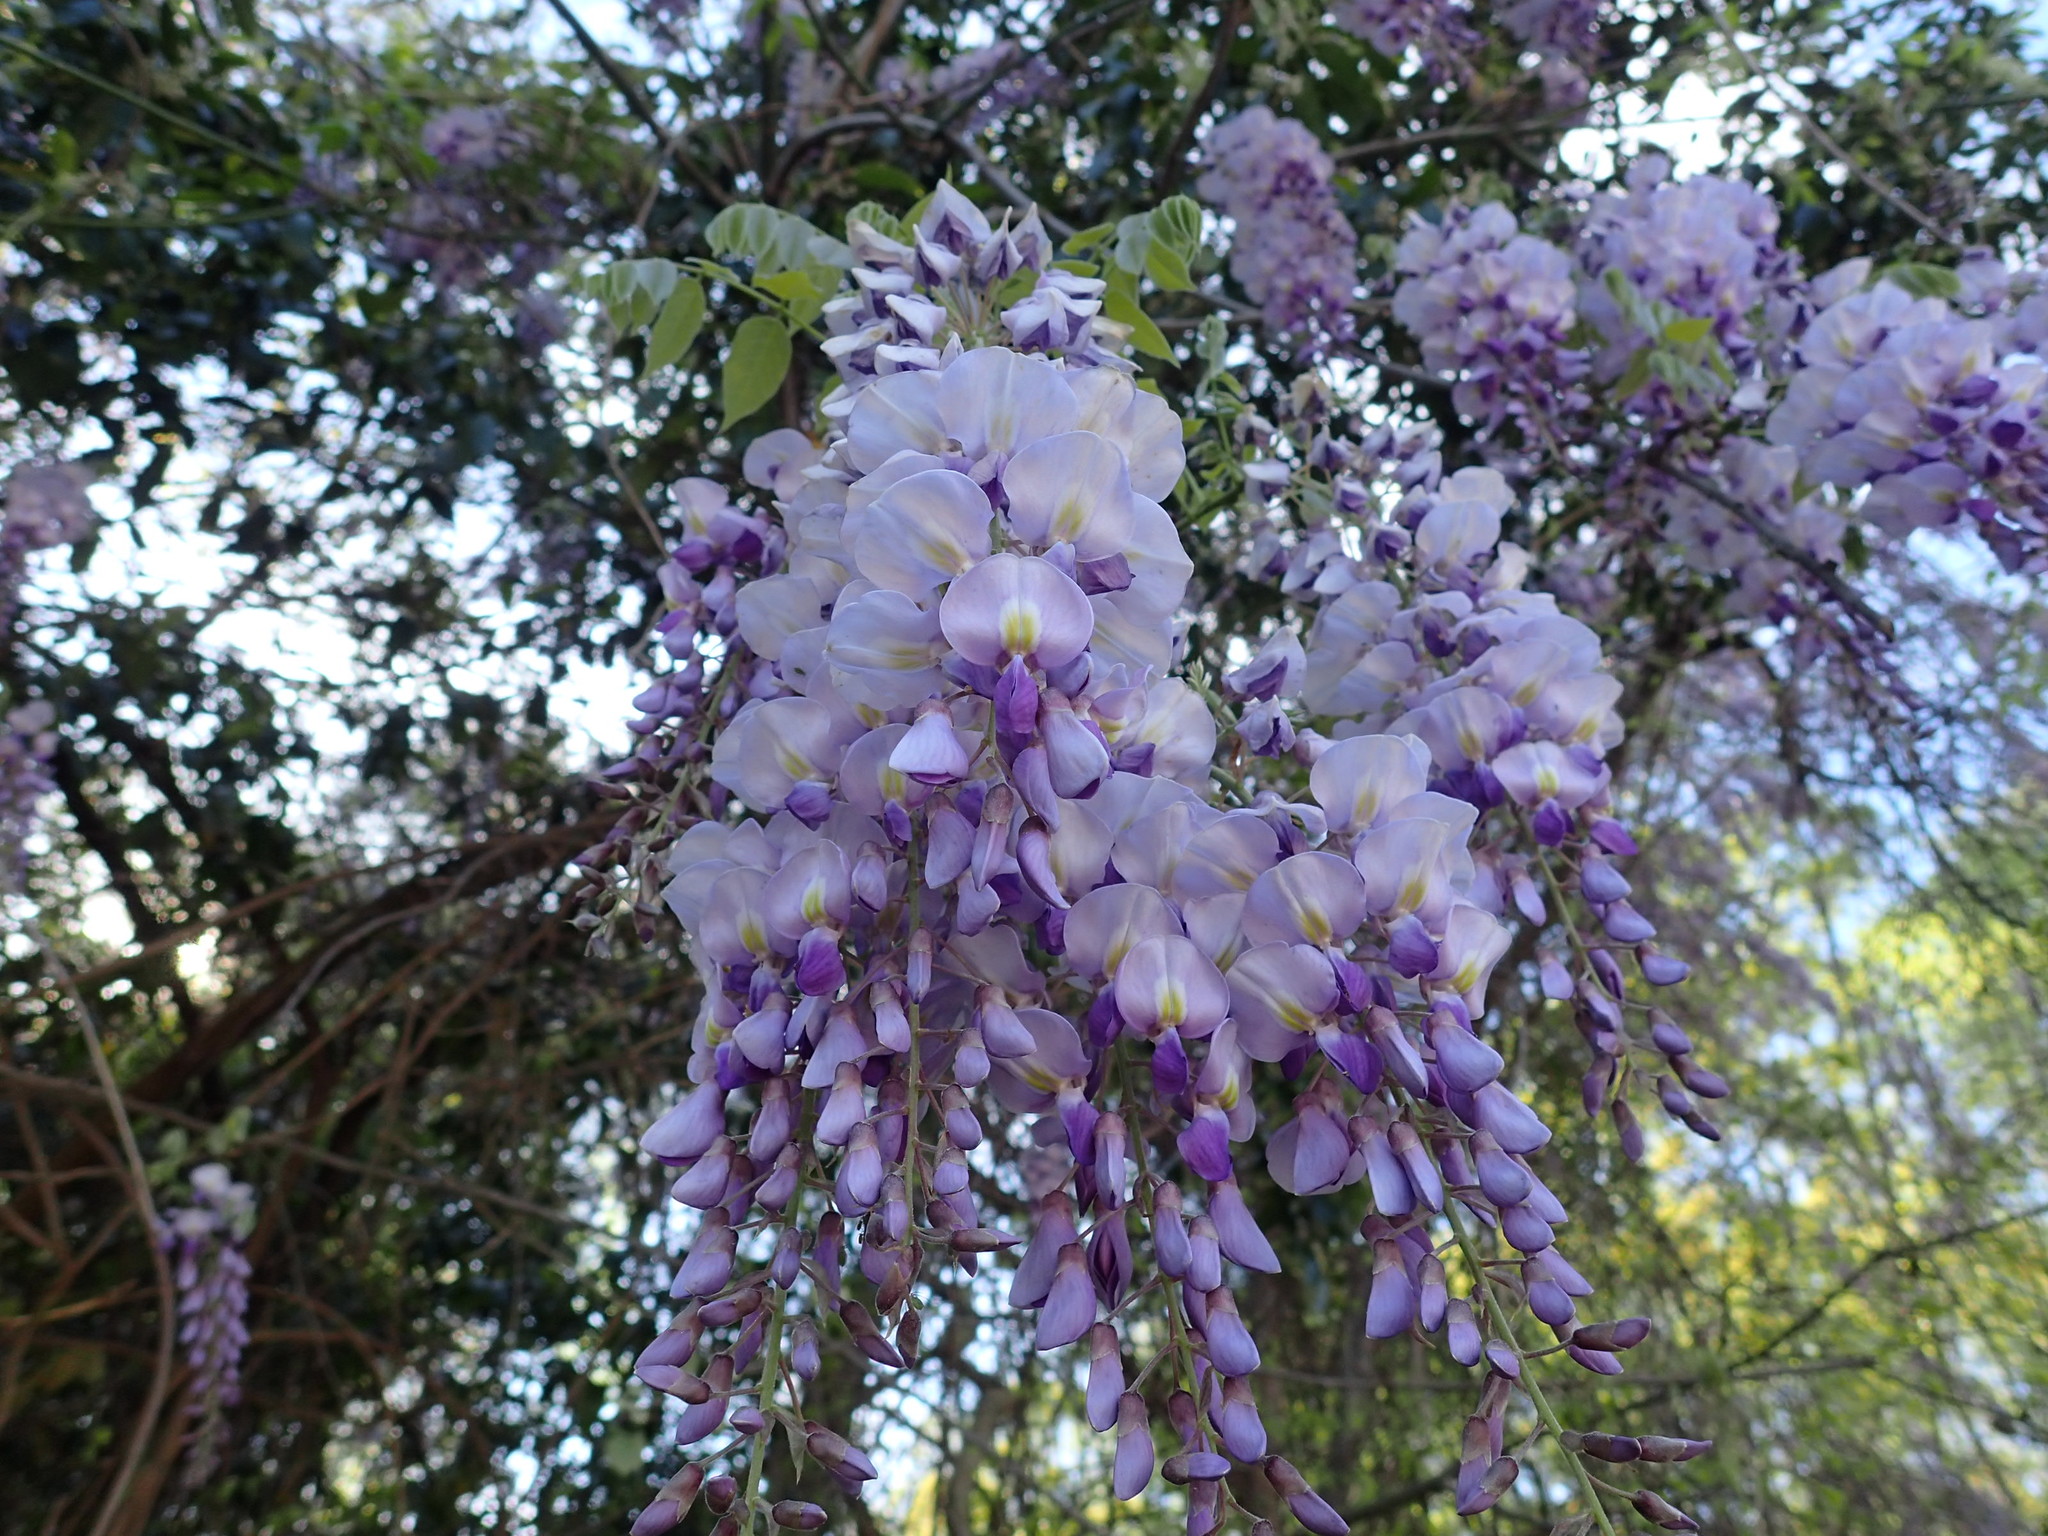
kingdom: Plantae
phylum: Tracheophyta
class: Magnoliopsida
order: Fabales
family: Fabaceae
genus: Wisteria
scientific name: Wisteria sinensis
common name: Chinese wisteria
